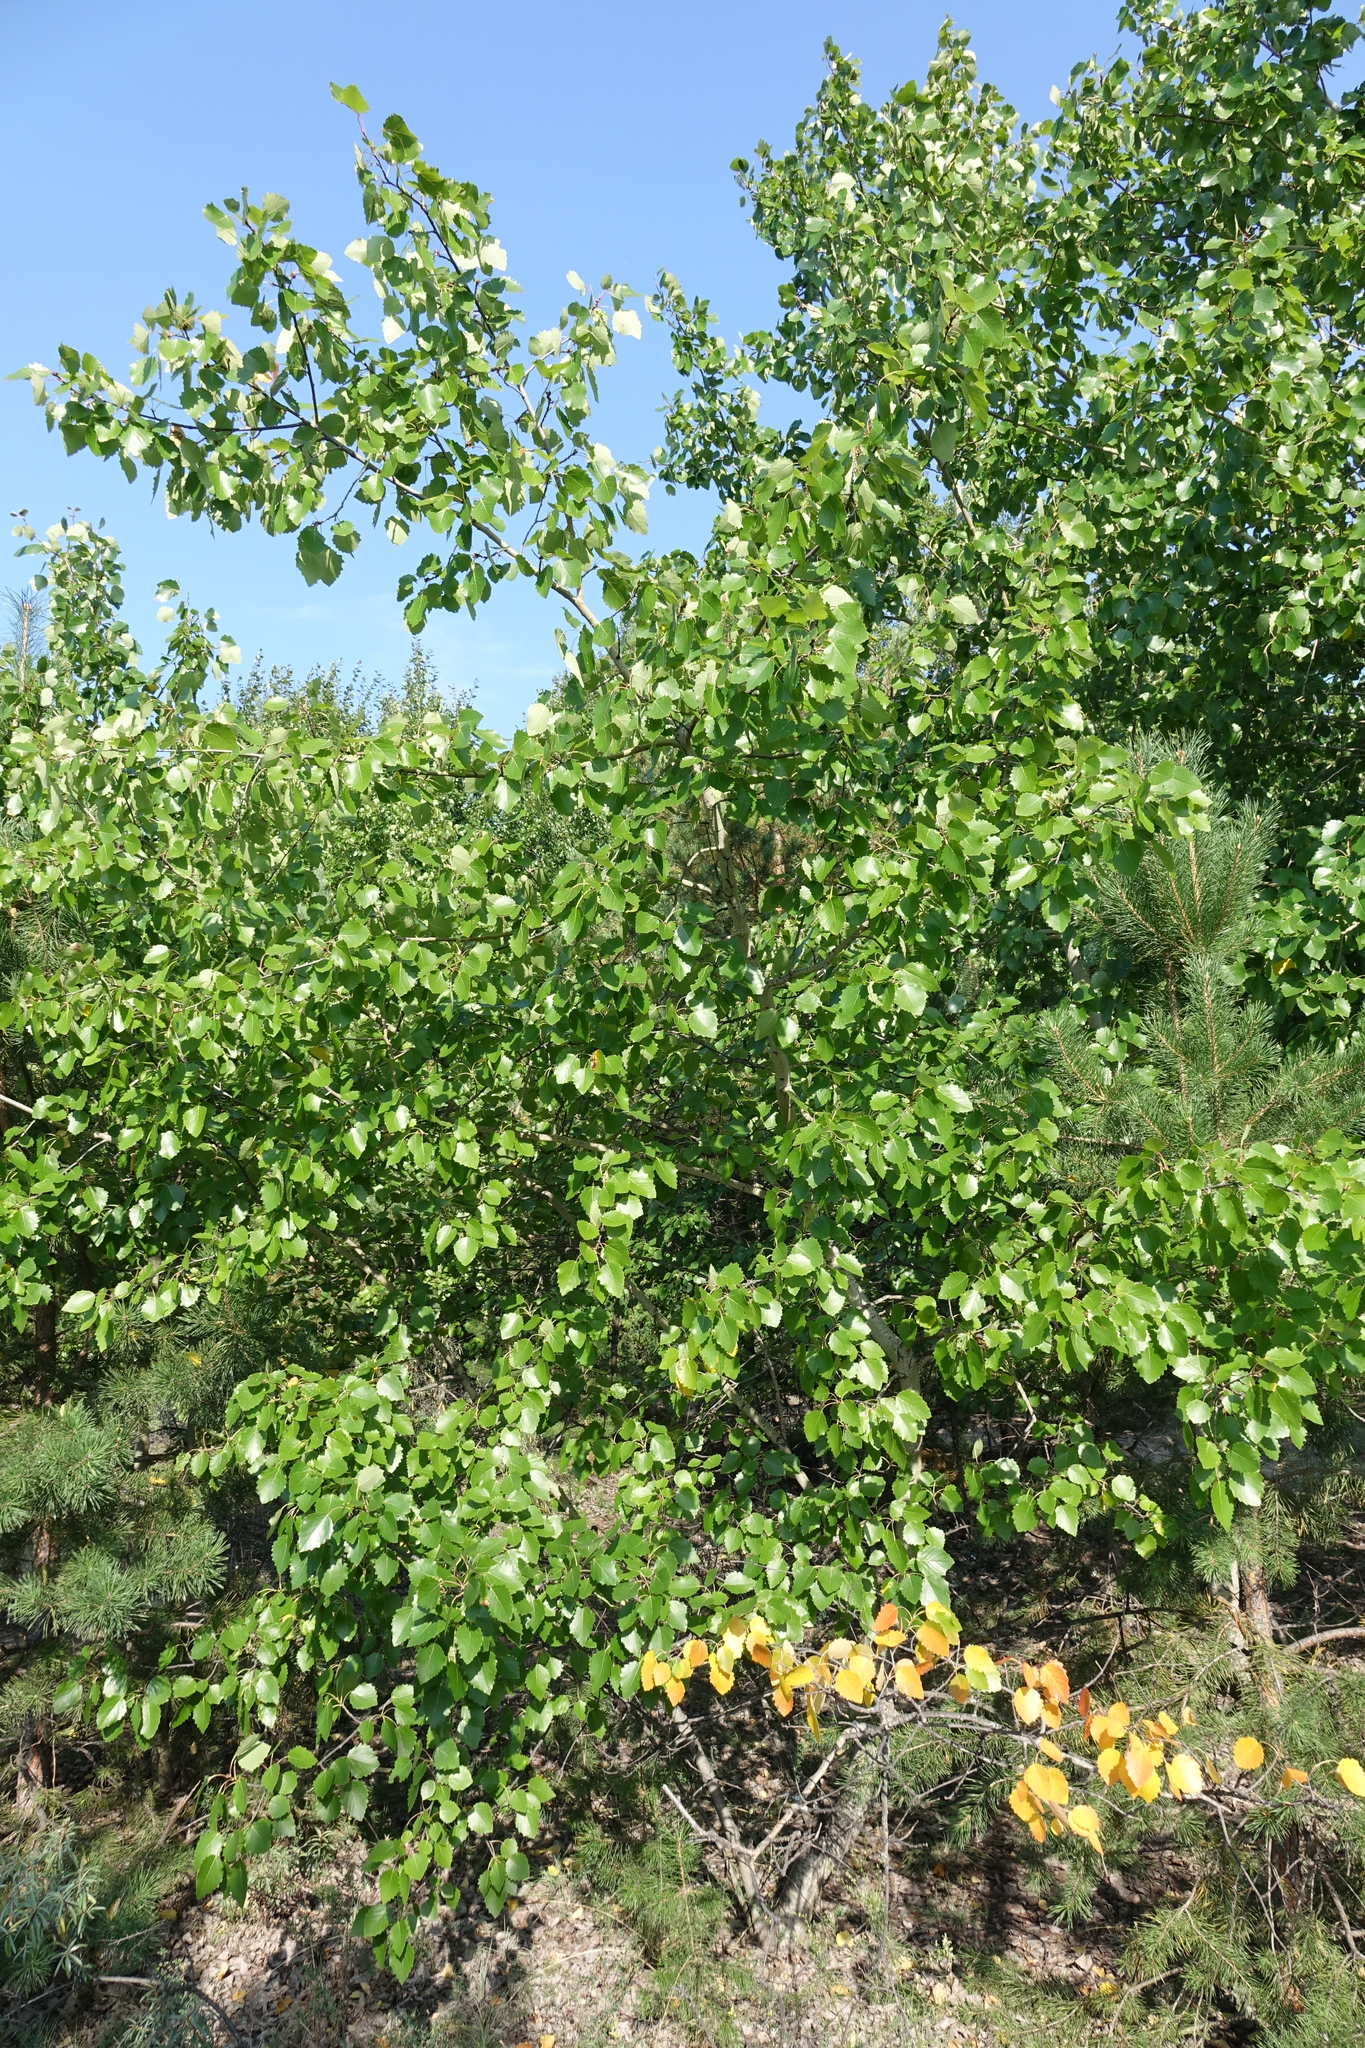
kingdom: Plantae
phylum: Tracheophyta
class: Magnoliopsida
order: Malpighiales
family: Salicaceae
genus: Populus
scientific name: Populus tremula
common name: European aspen
